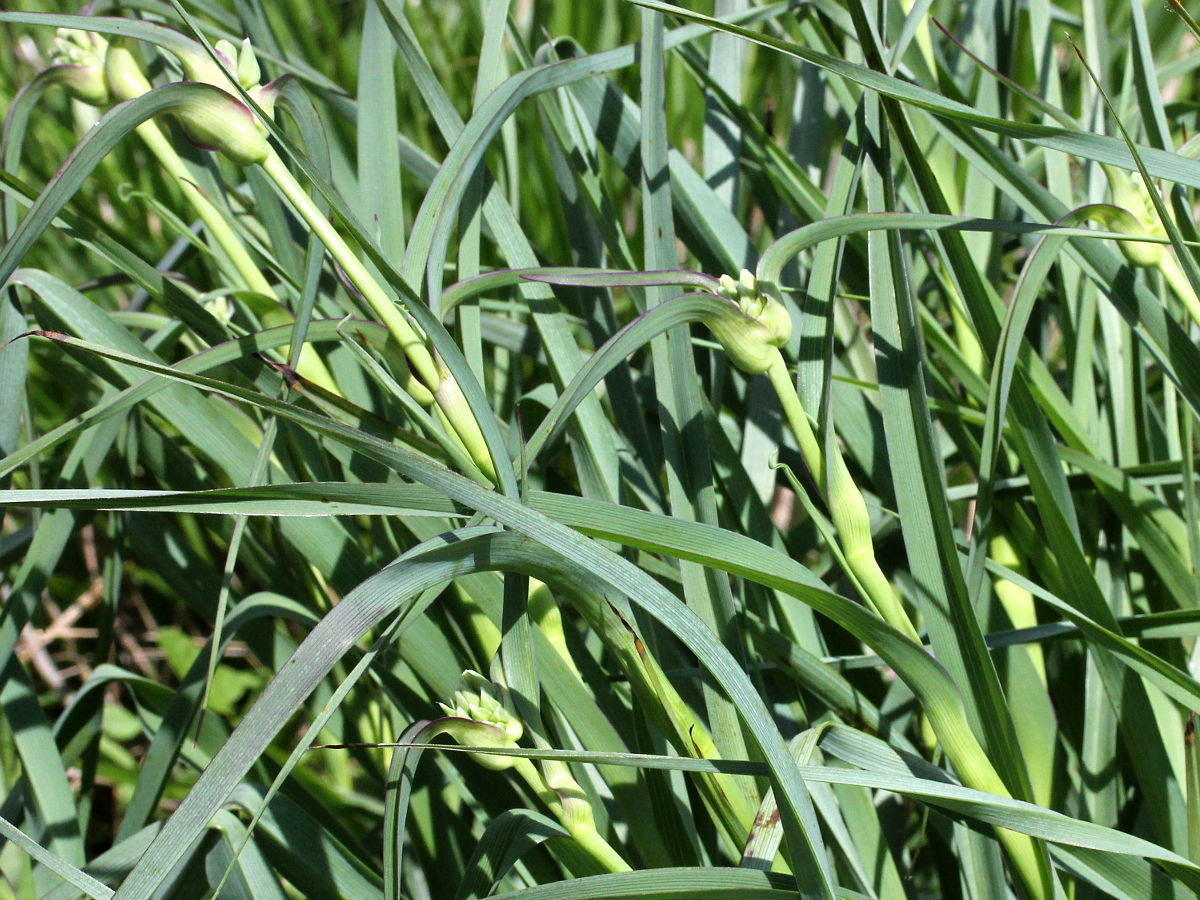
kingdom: Plantae
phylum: Tracheophyta
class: Liliopsida
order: Commelinales
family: Commelinaceae
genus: Tradescantia
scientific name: Tradescantia ohiensis
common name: Ohio spiderwort
